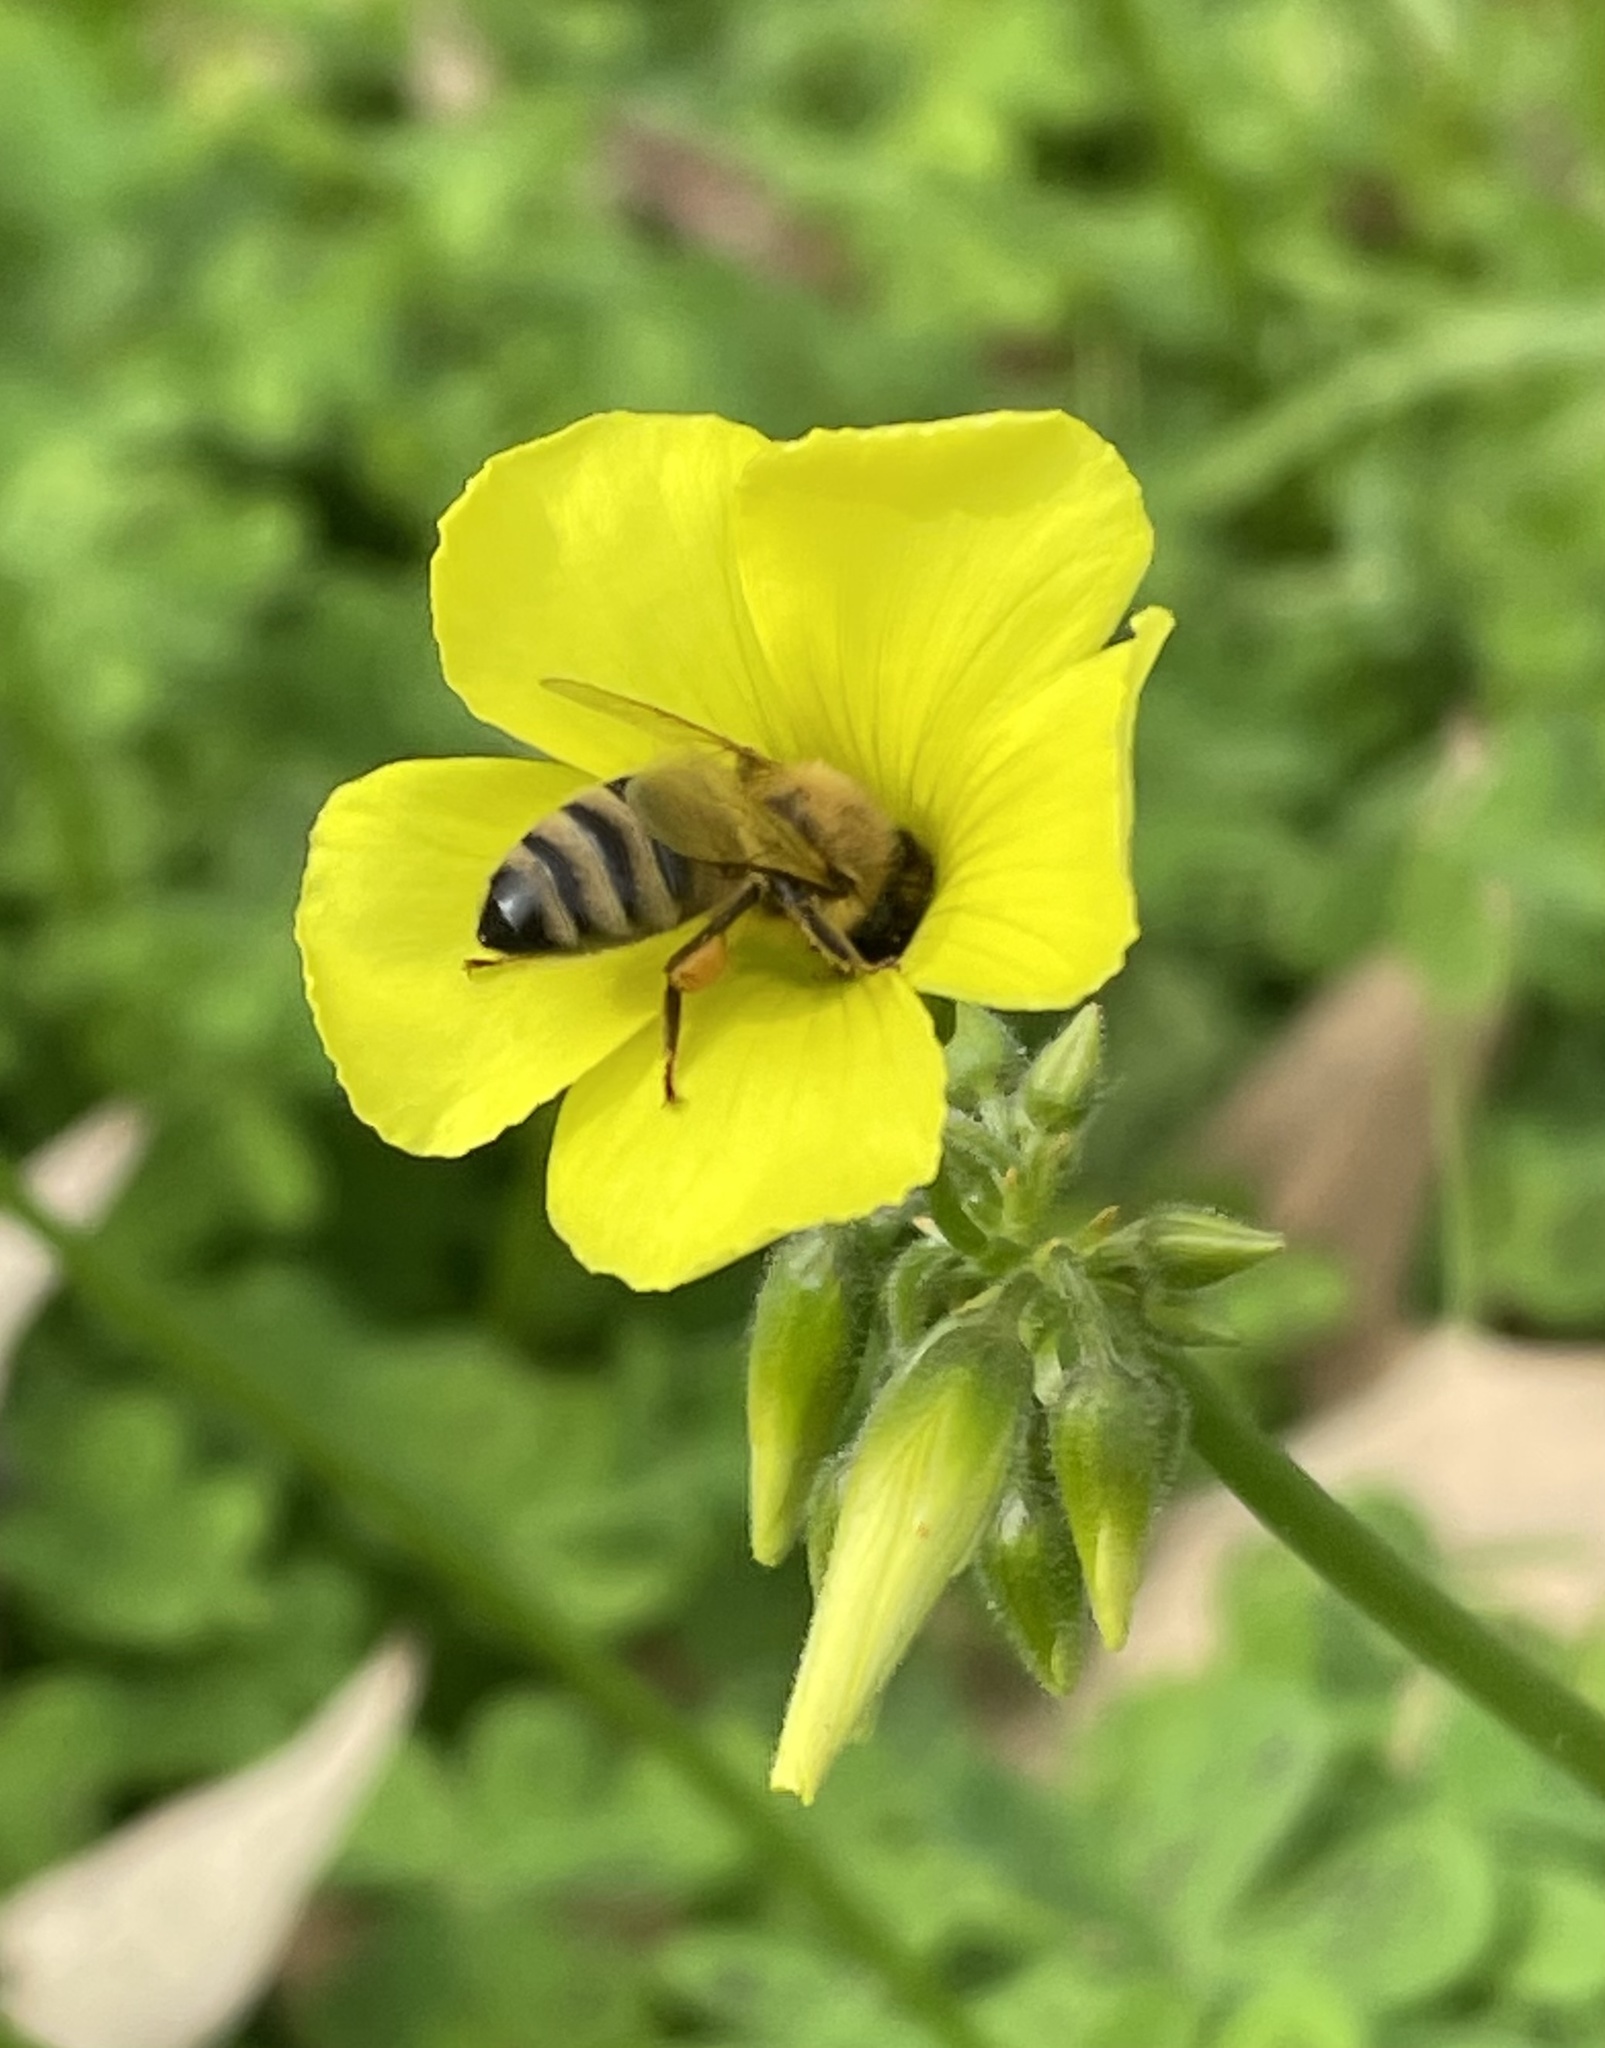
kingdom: Animalia
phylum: Arthropoda
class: Insecta
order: Hymenoptera
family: Apidae
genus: Apis
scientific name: Apis mellifera
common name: Honey bee
